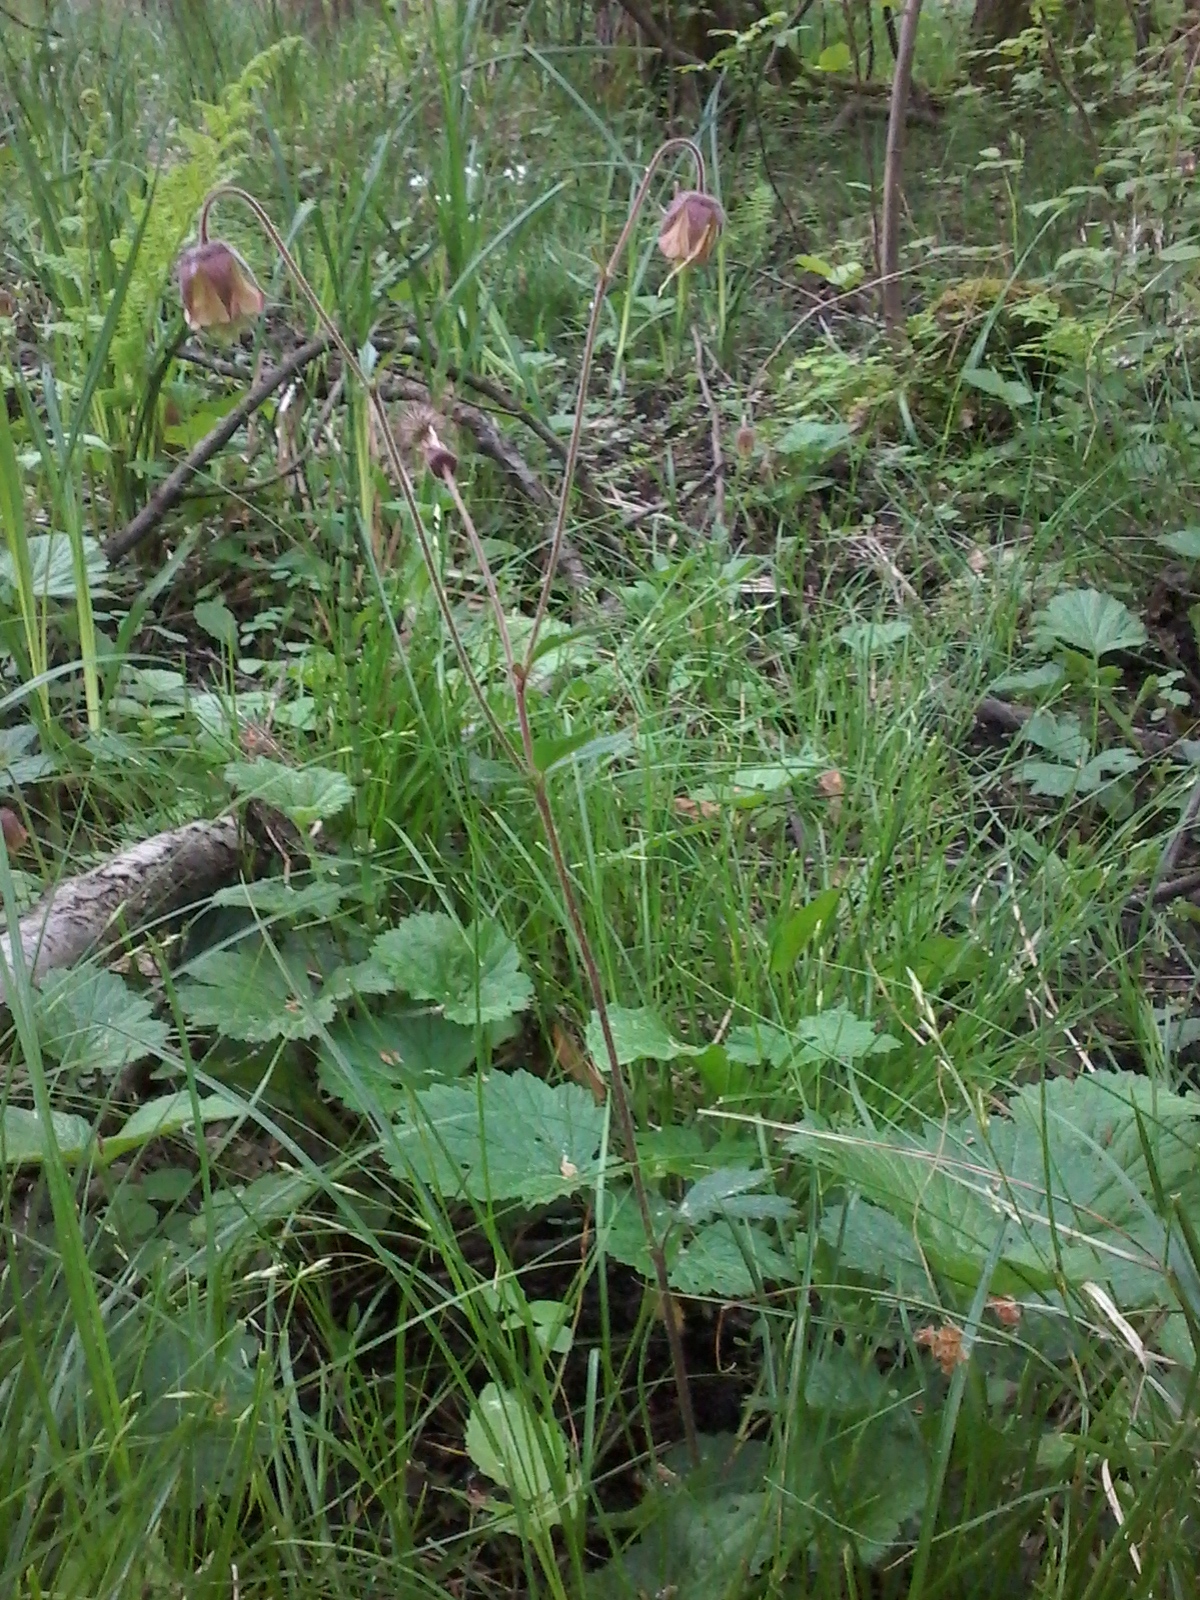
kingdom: Plantae
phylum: Tracheophyta
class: Magnoliopsida
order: Rosales
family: Rosaceae
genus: Geum
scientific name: Geum rivale
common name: Water avens
